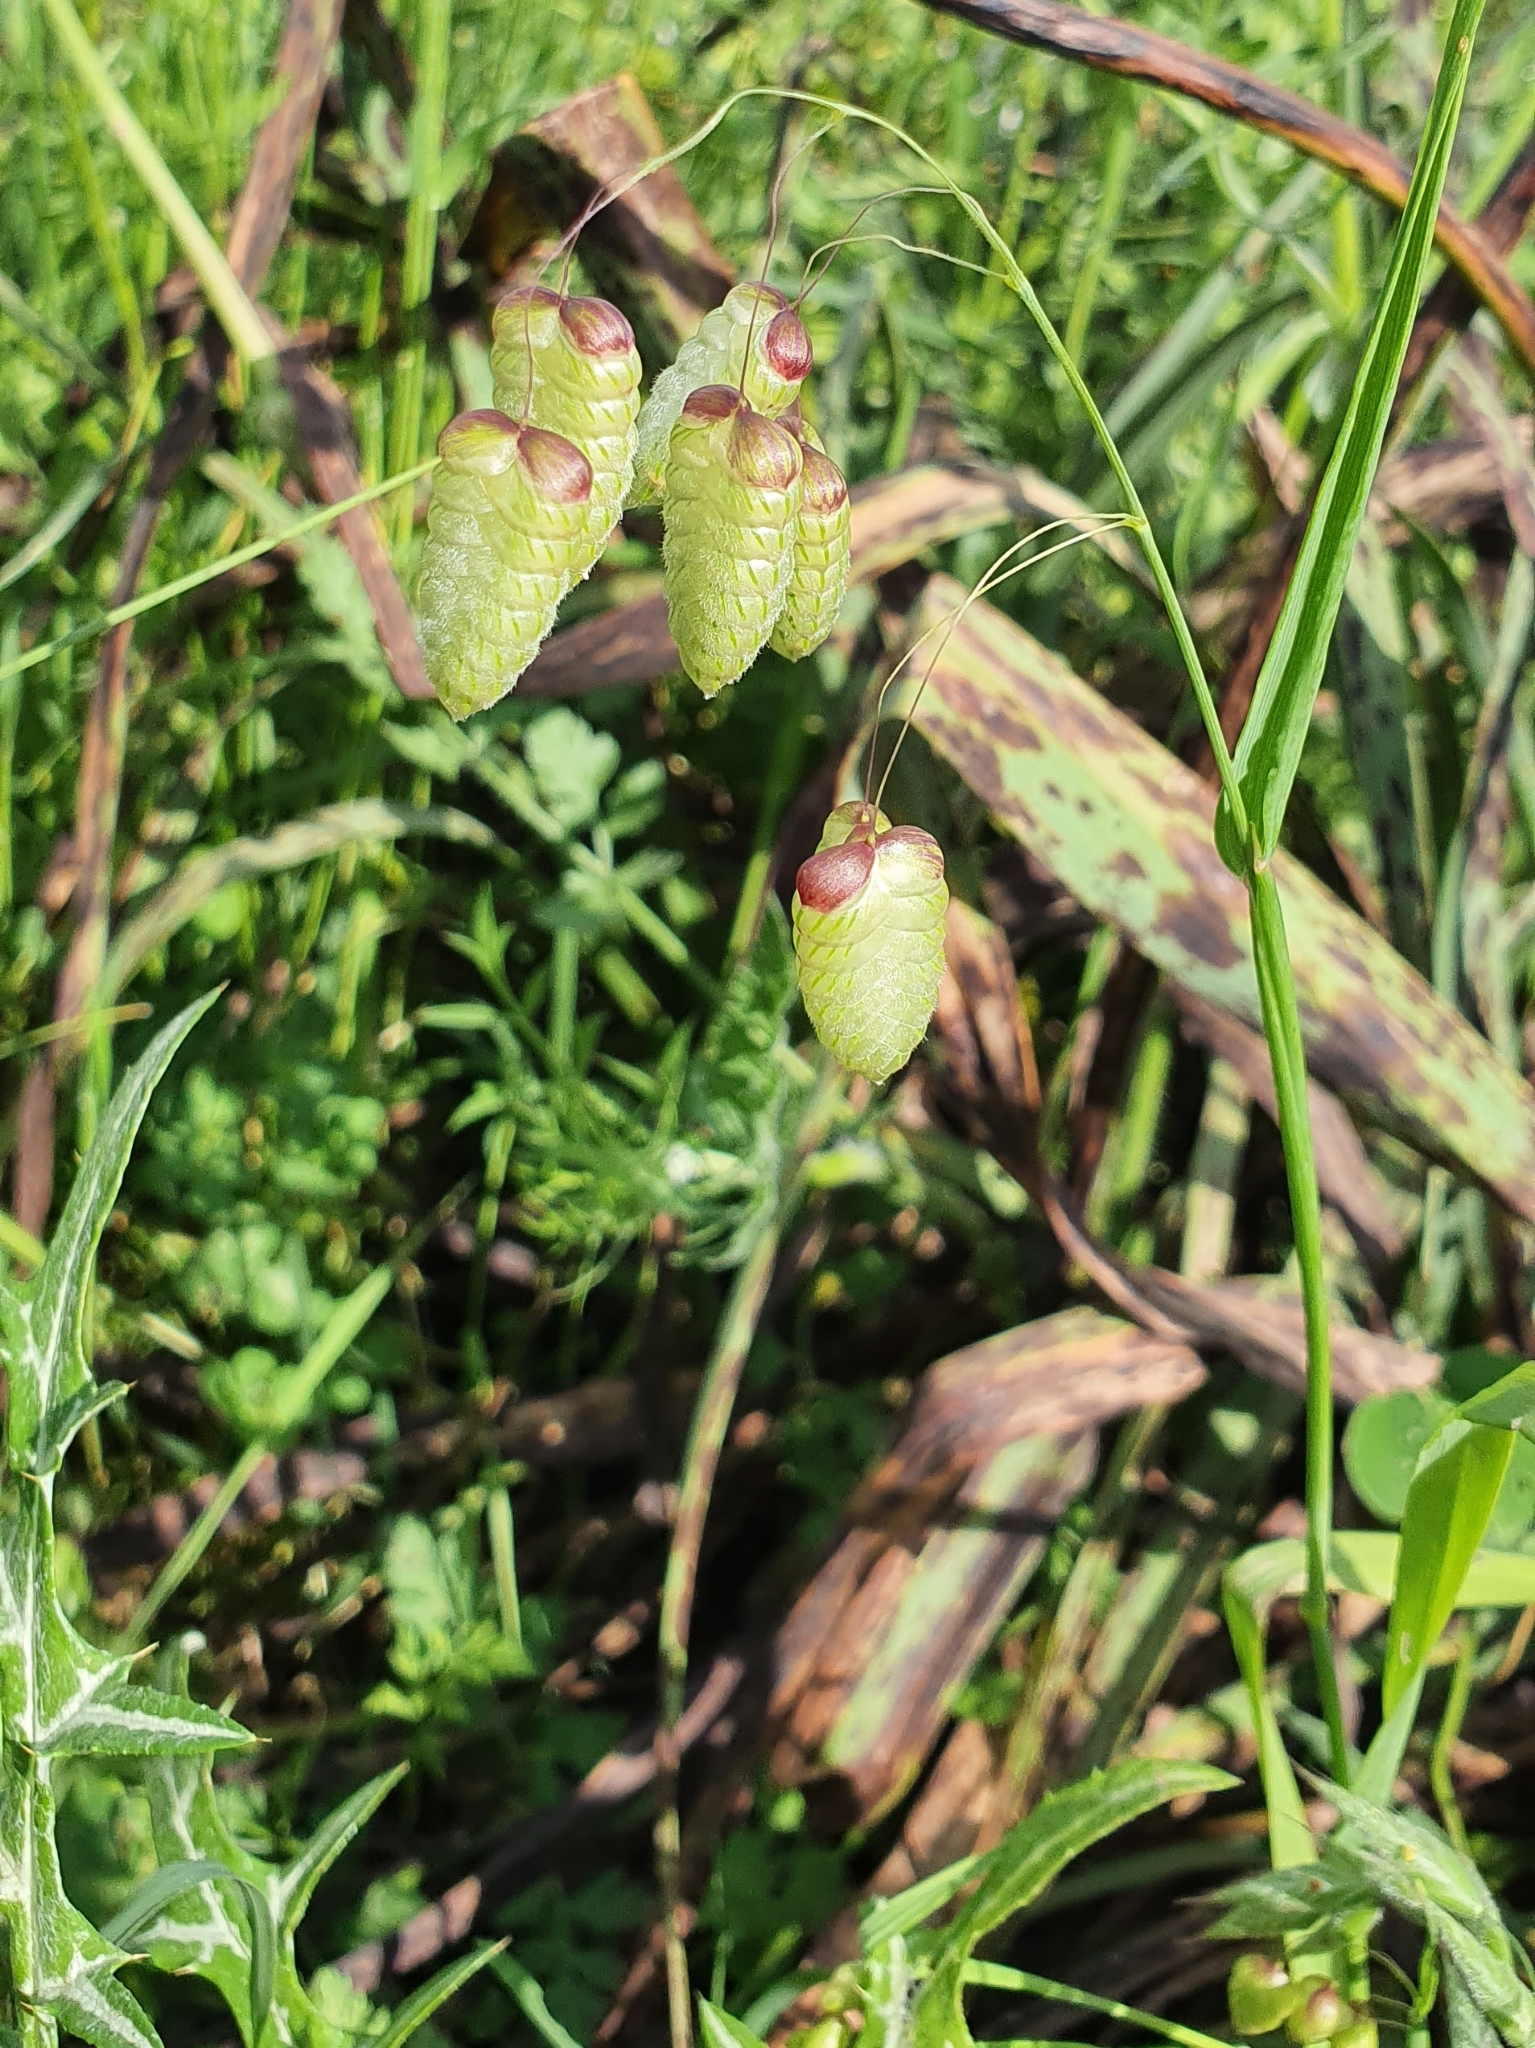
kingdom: Plantae
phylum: Tracheophyta
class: Liliopsida
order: Poales
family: Poaceae
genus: Briza
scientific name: Briza maxima
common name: Big quakinggrass
